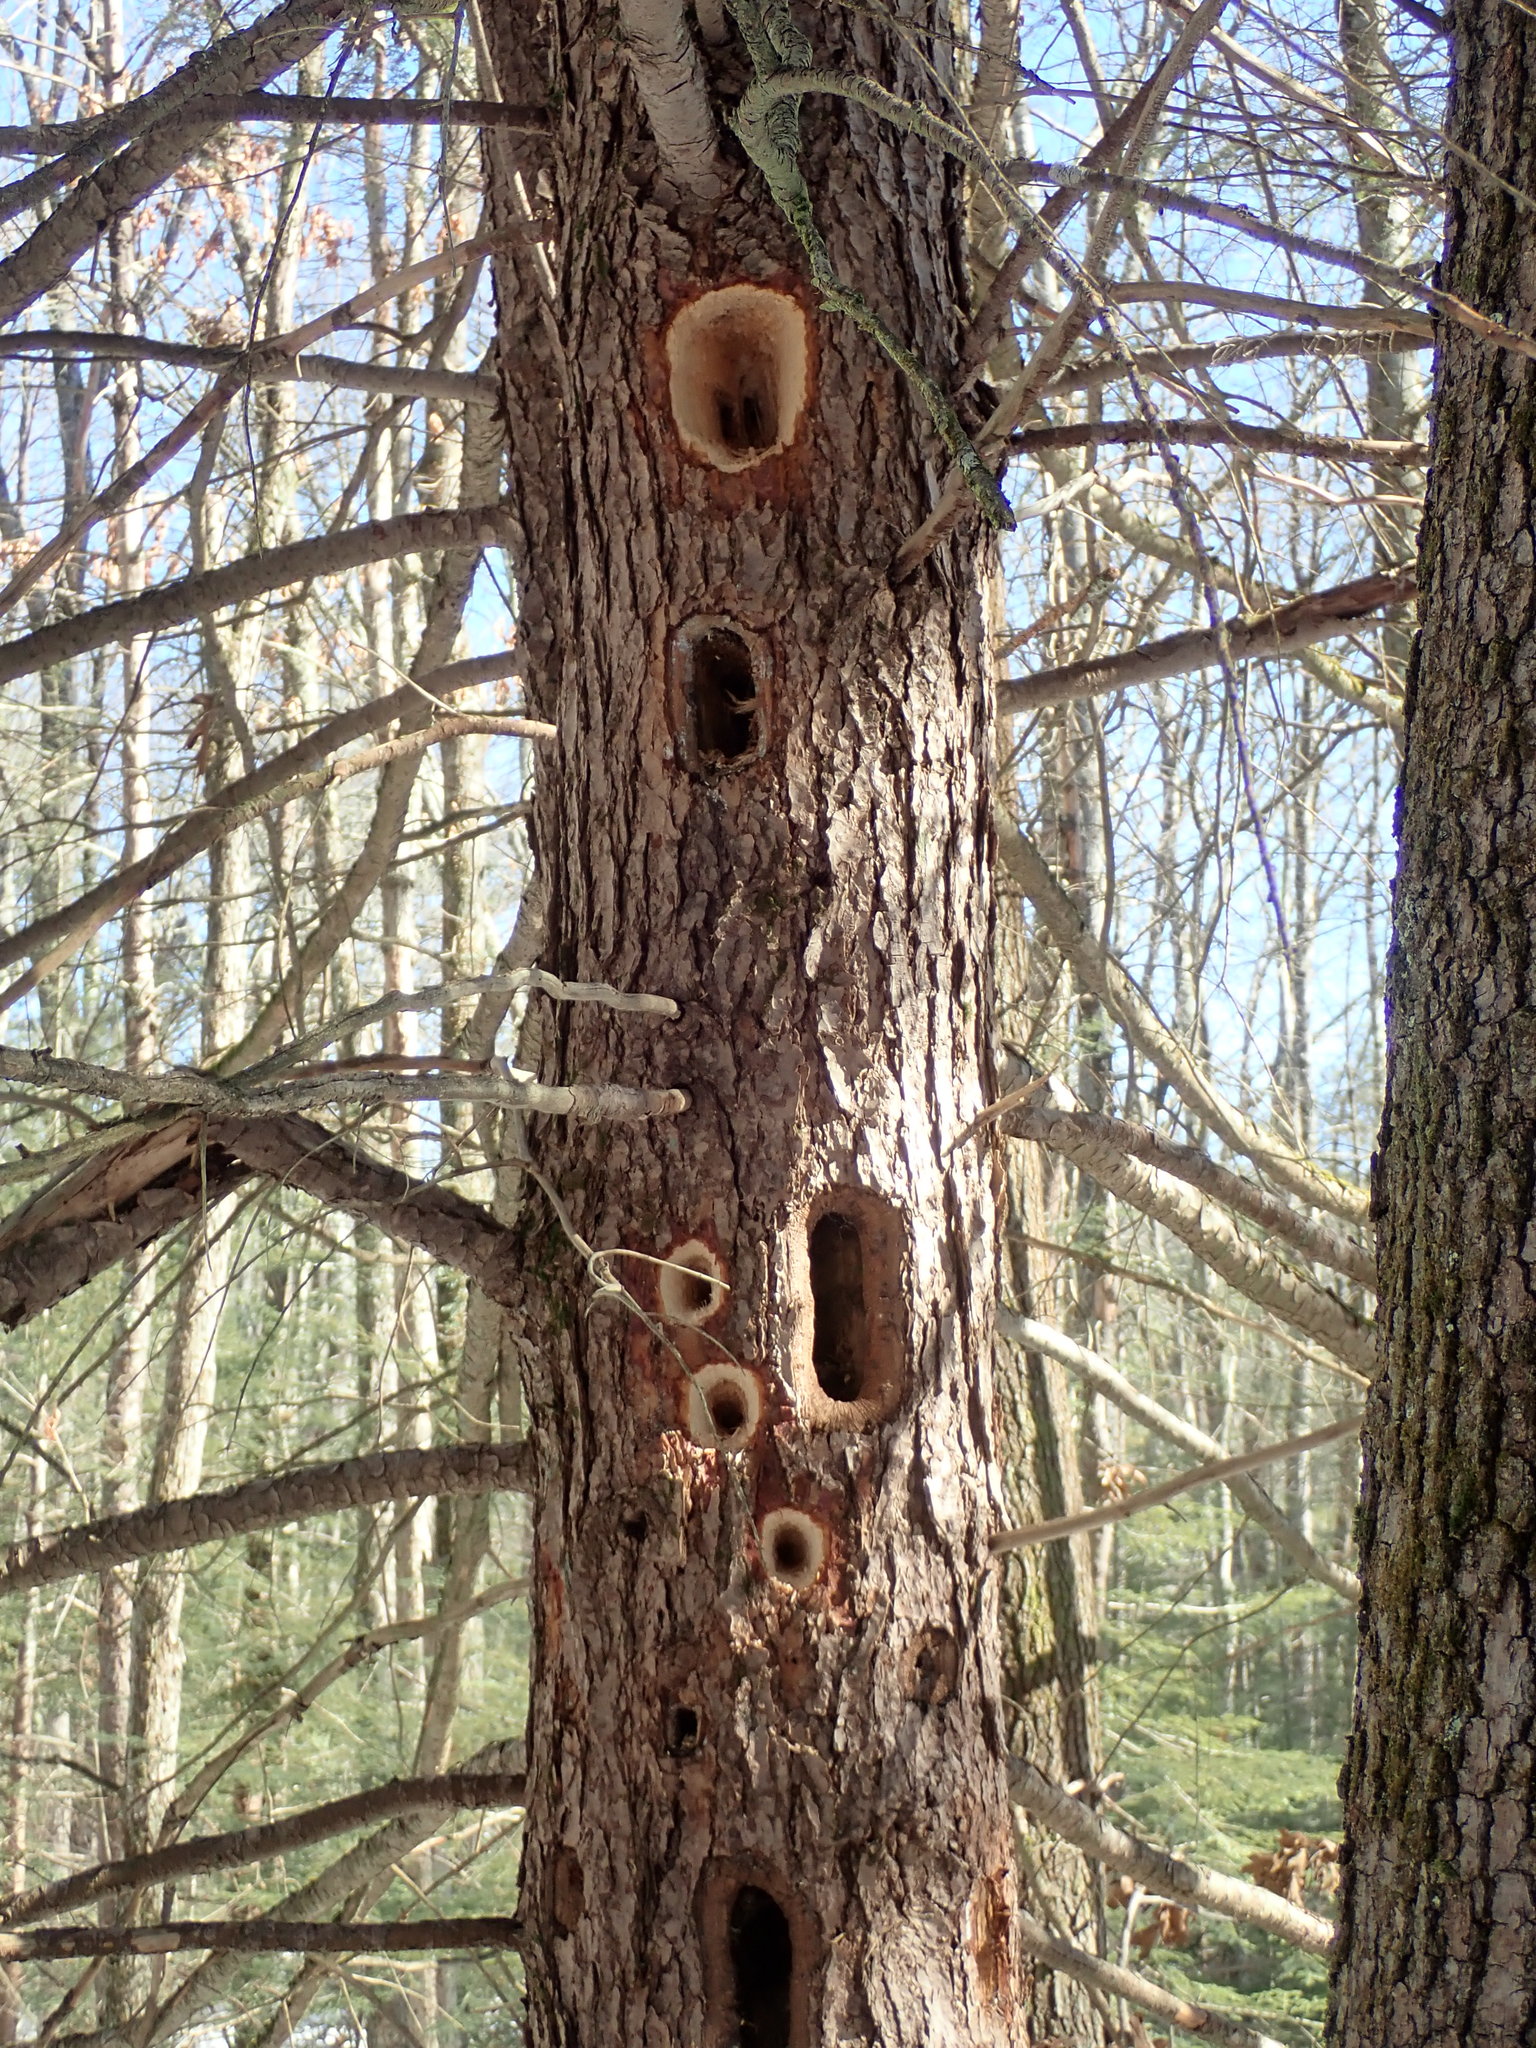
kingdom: Animalia
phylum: Chordata
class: Aves
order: Piciformes
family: Picidae
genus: Dryocopus
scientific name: Dryocopus pileatus
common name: Pileated woodpecker
